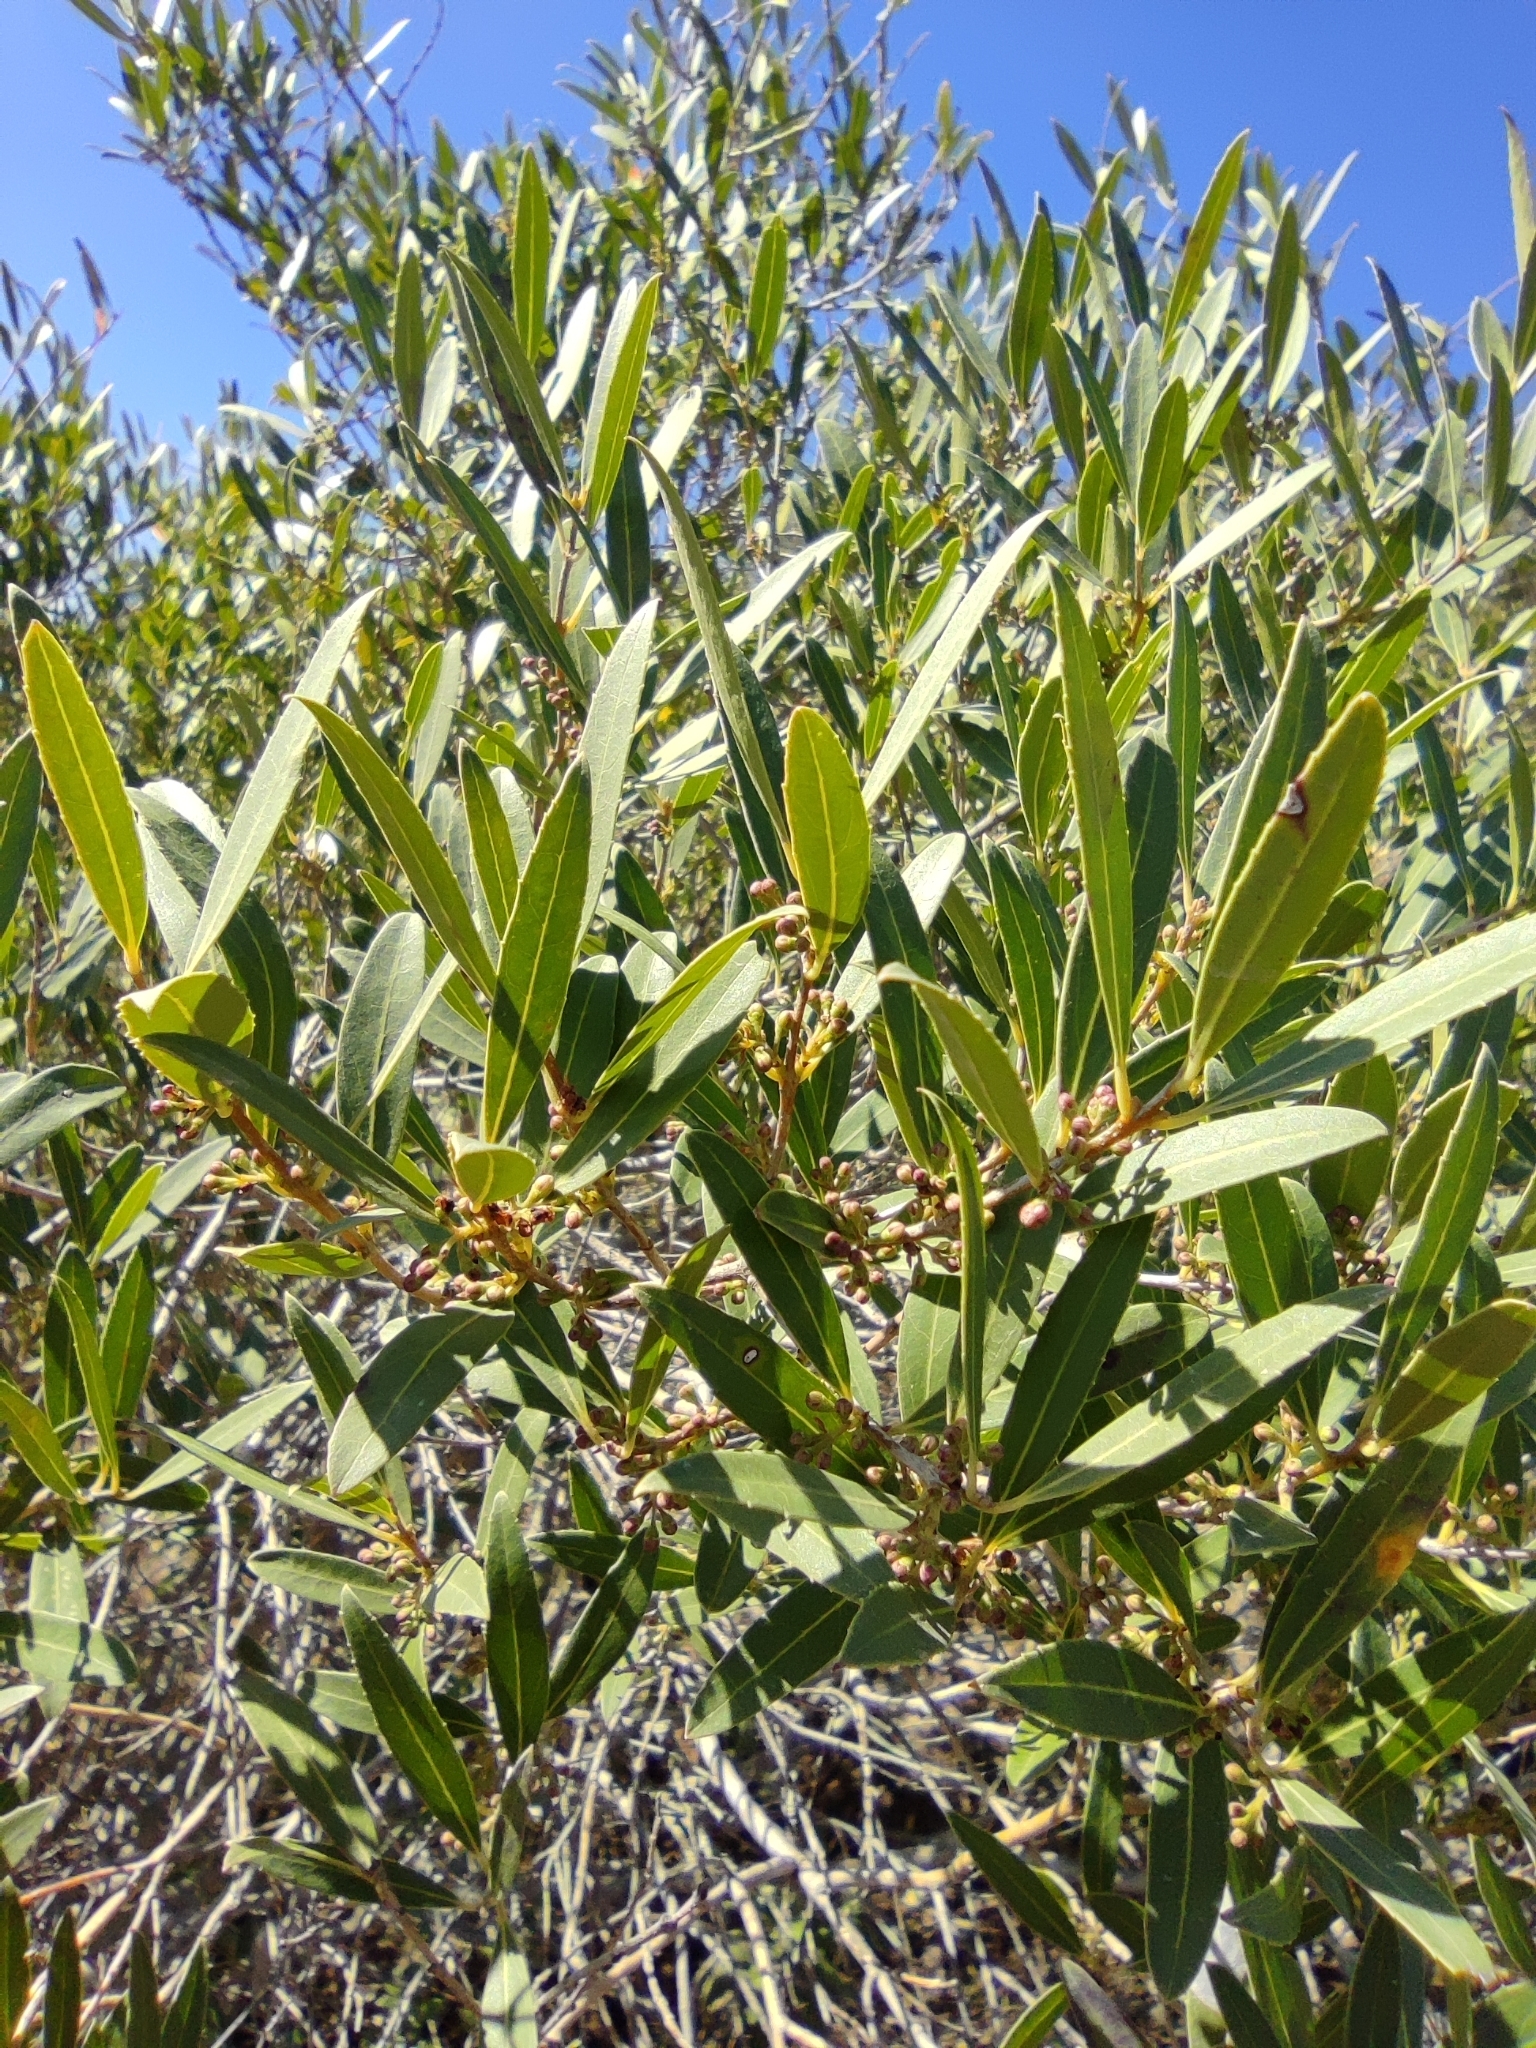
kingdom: Plantae
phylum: Tracheophyta
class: Magnoliopsida
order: Lamiales
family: Oleaceae
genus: Phillyrea
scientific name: Phillyrea angustifolia
